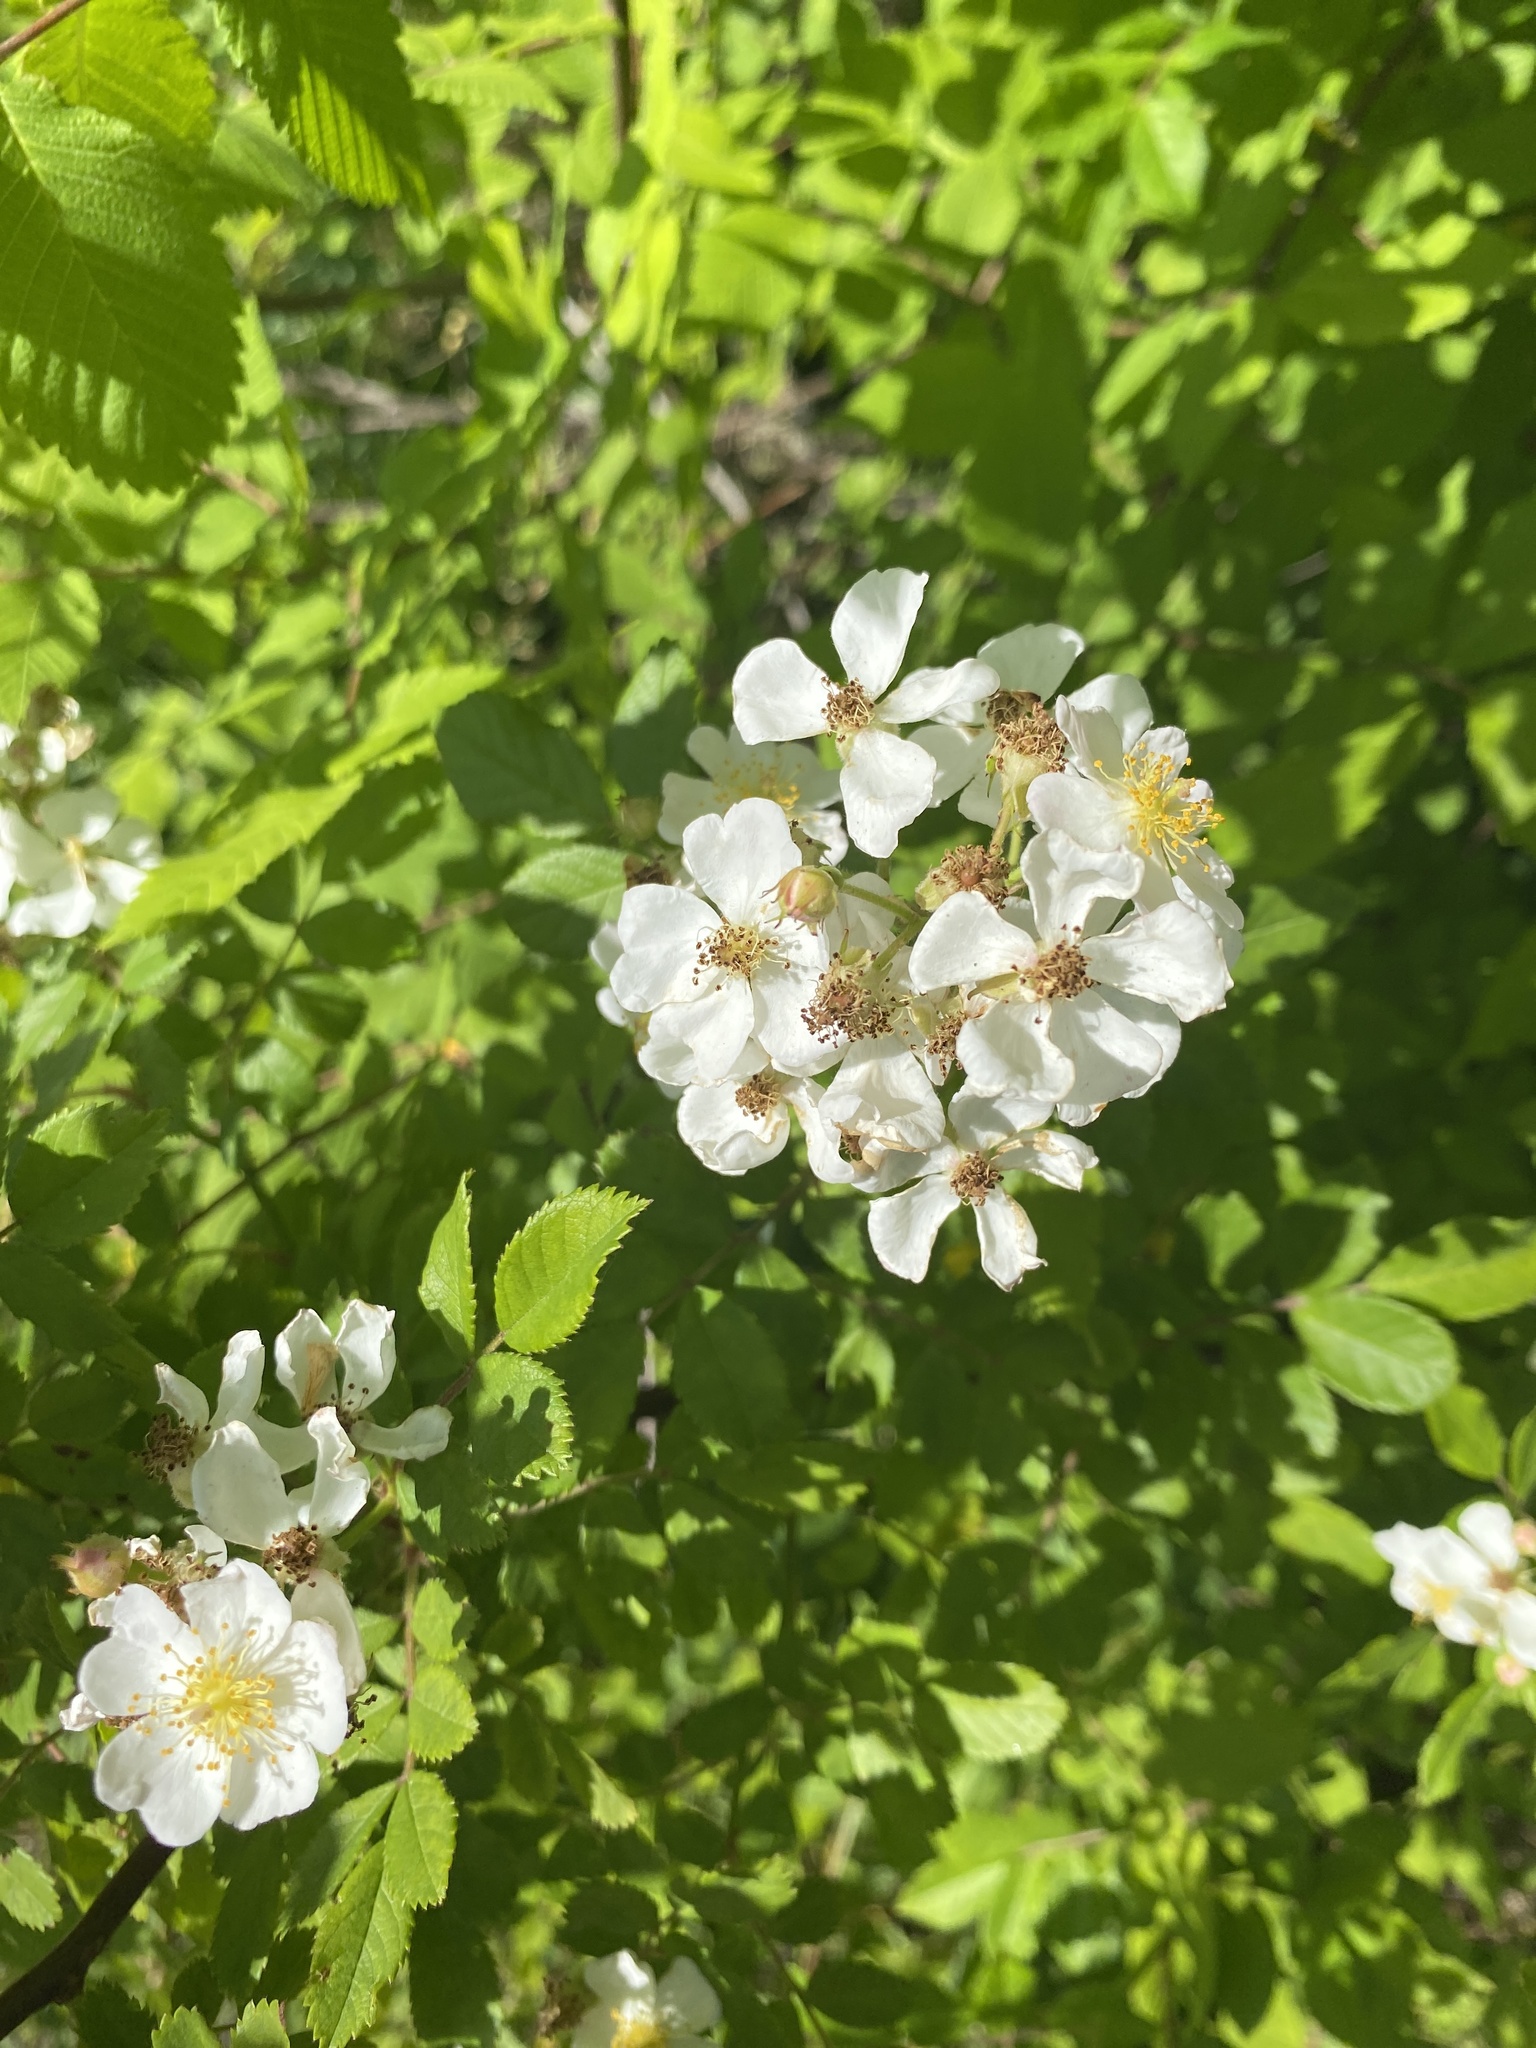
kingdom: Plantae
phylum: Tracheophyta
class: Magnoliopsida
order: Rosales
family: Rosaceae
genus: Rosa
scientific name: Rosa multiflora
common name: Multiflora rose
